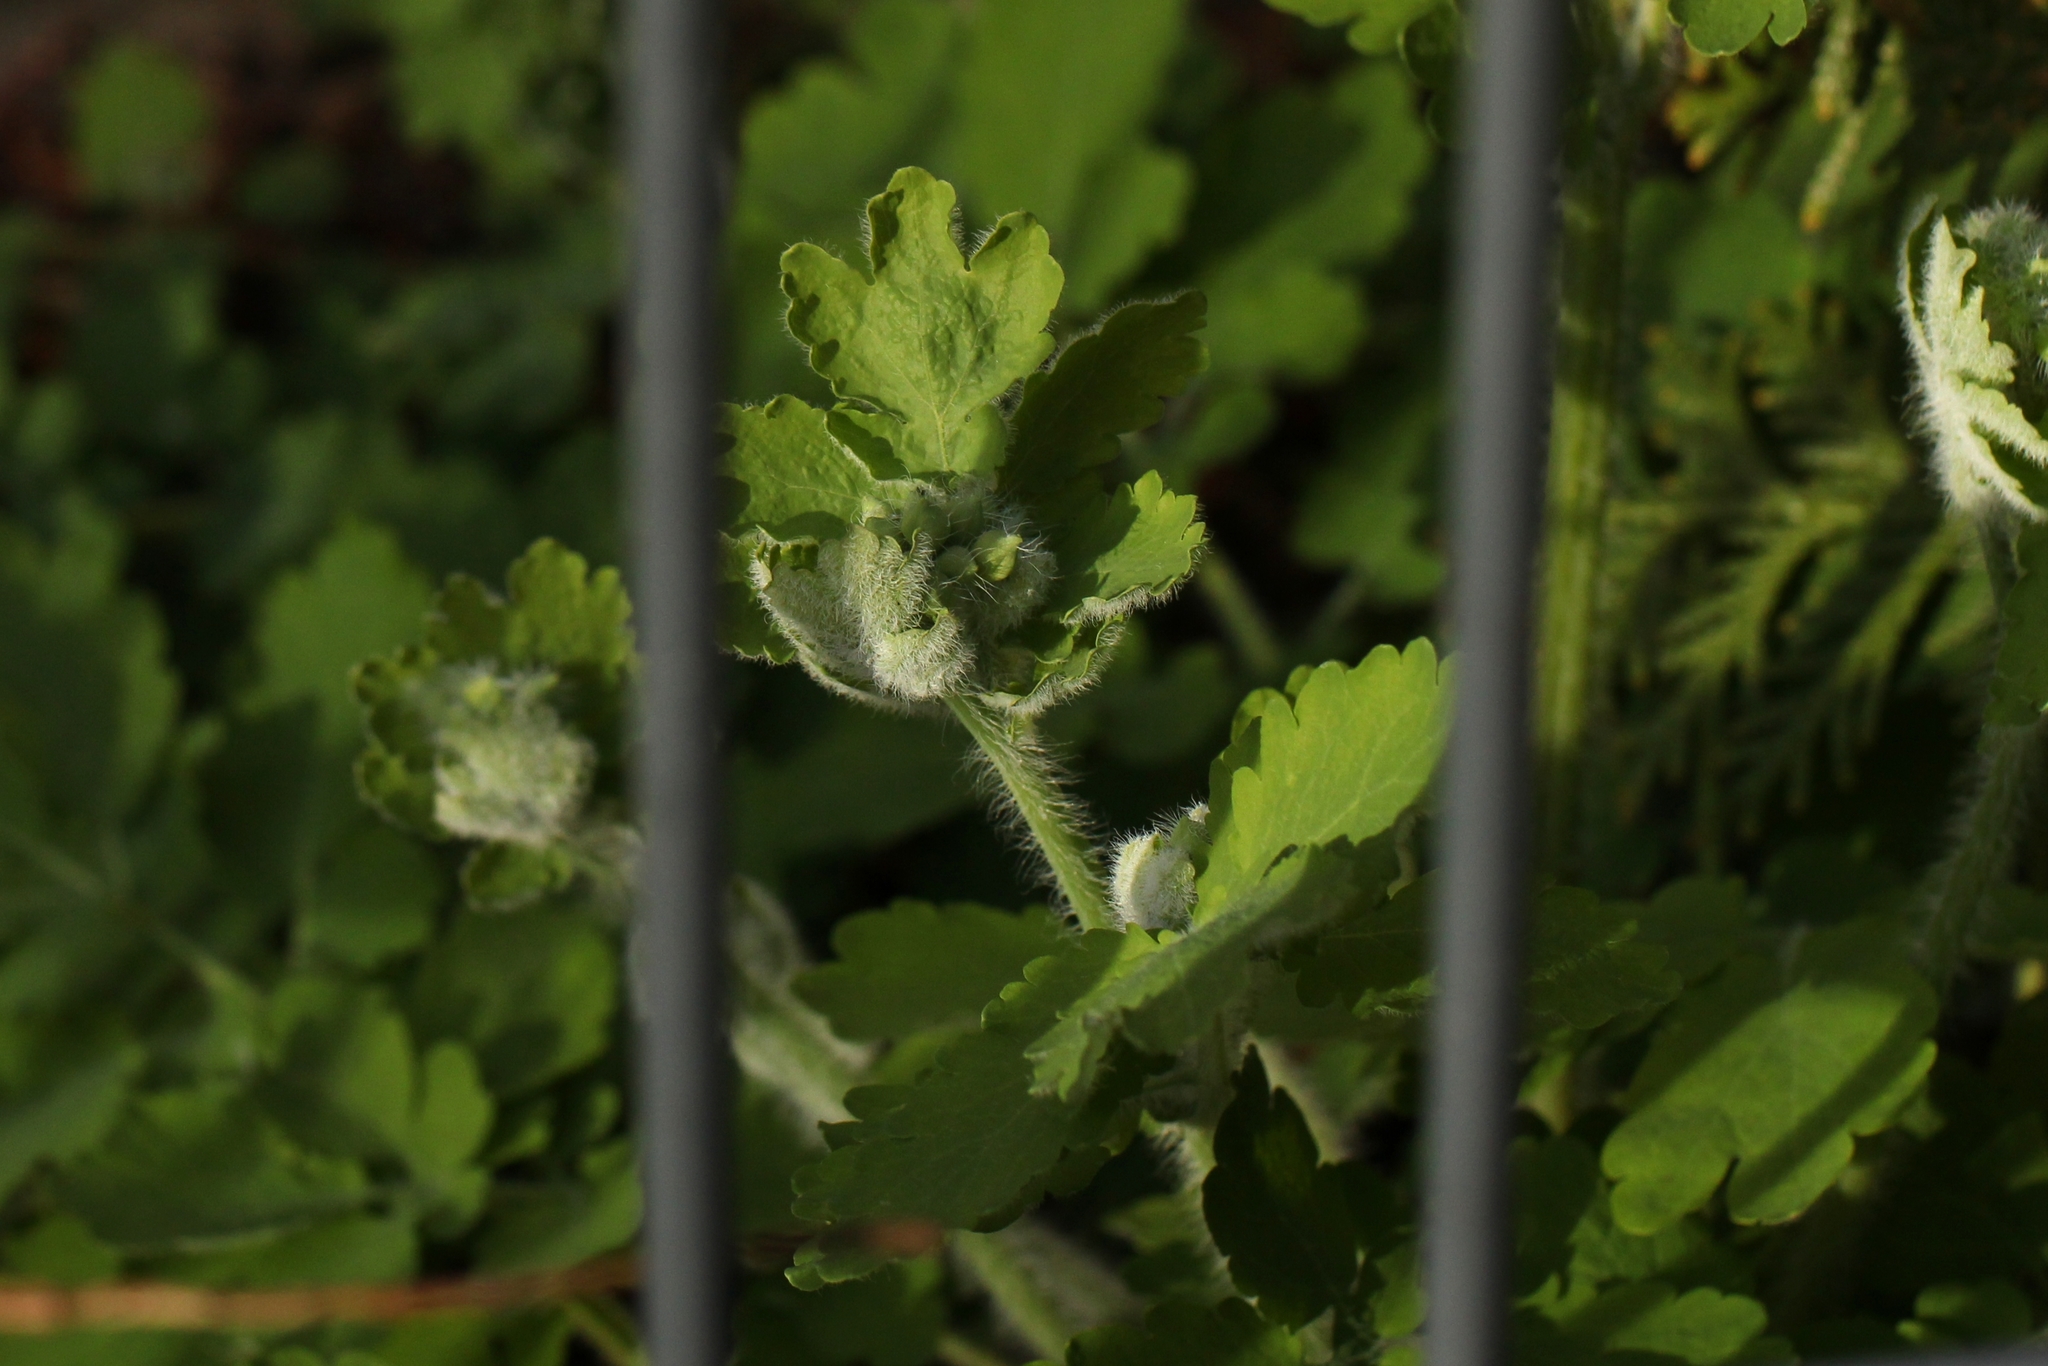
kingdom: Plantae
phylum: Tracheophyta
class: Magnoliopsida
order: Ranunculales
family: Papaveraceae
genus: Chelidonium
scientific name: Chelidonium majus
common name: Greater celandine
